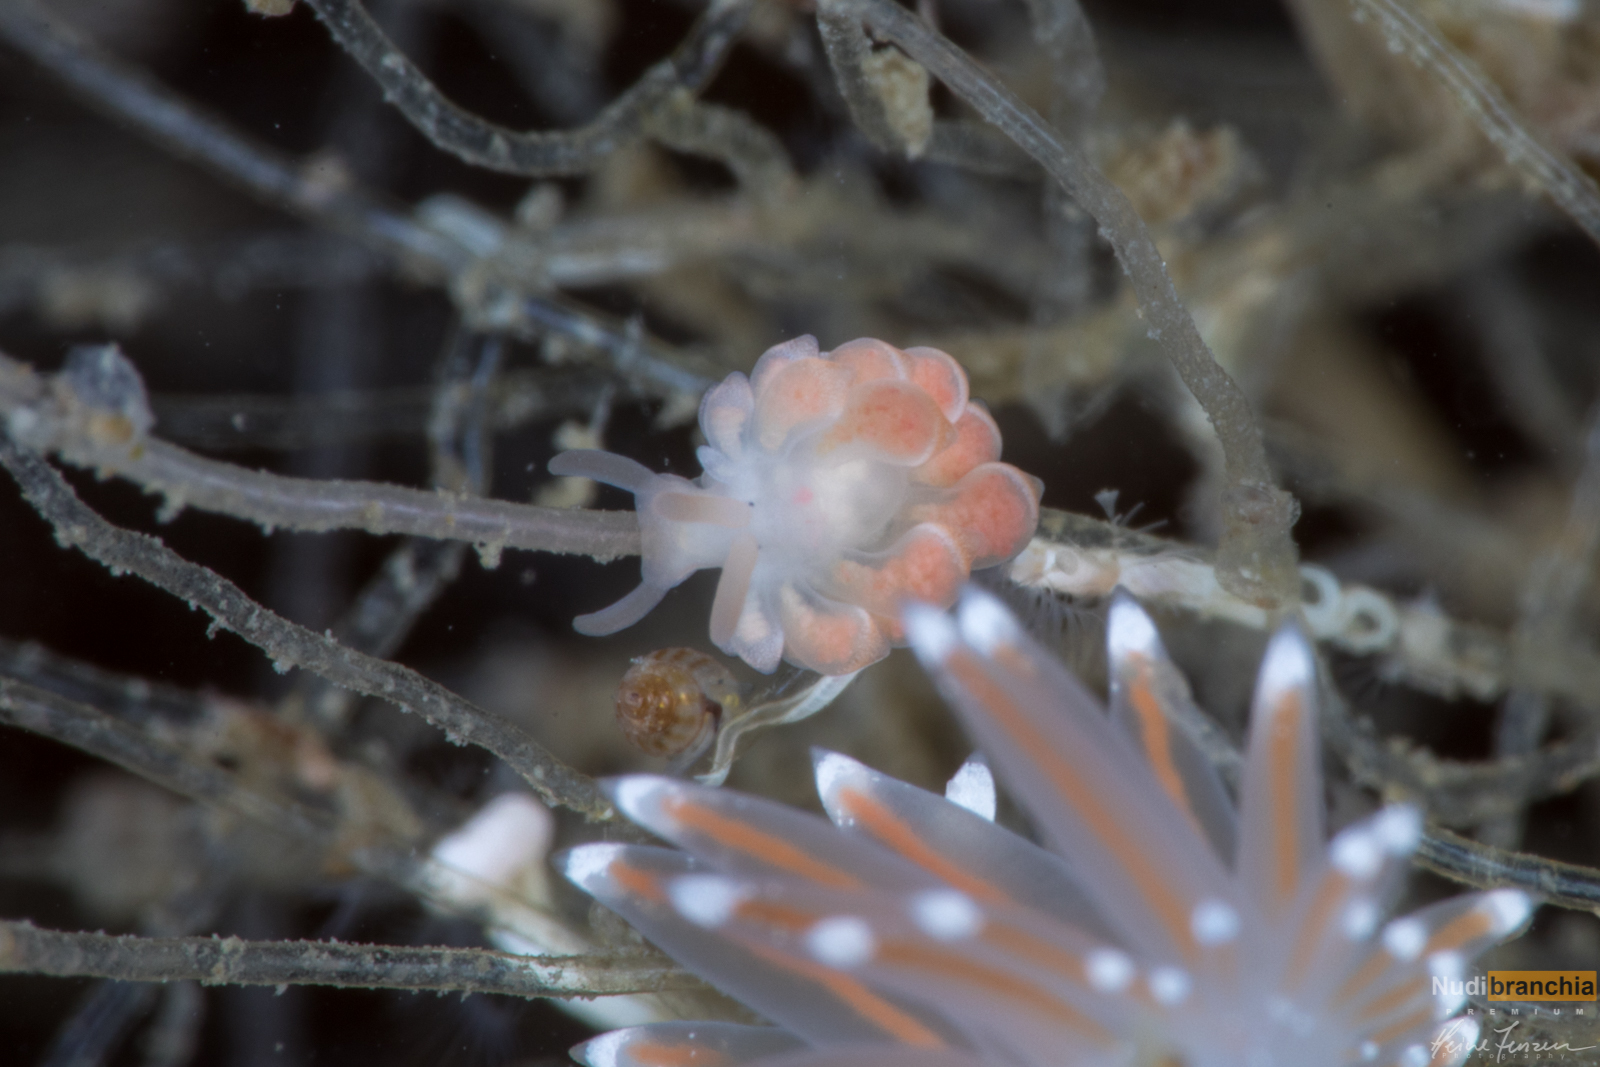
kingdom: Animalia
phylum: Mollusca
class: Gastropoda
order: Nudibranchia
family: Trinchesiidae
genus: Catriona
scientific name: Catriona aurantia
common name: Corange-tip cuthona
